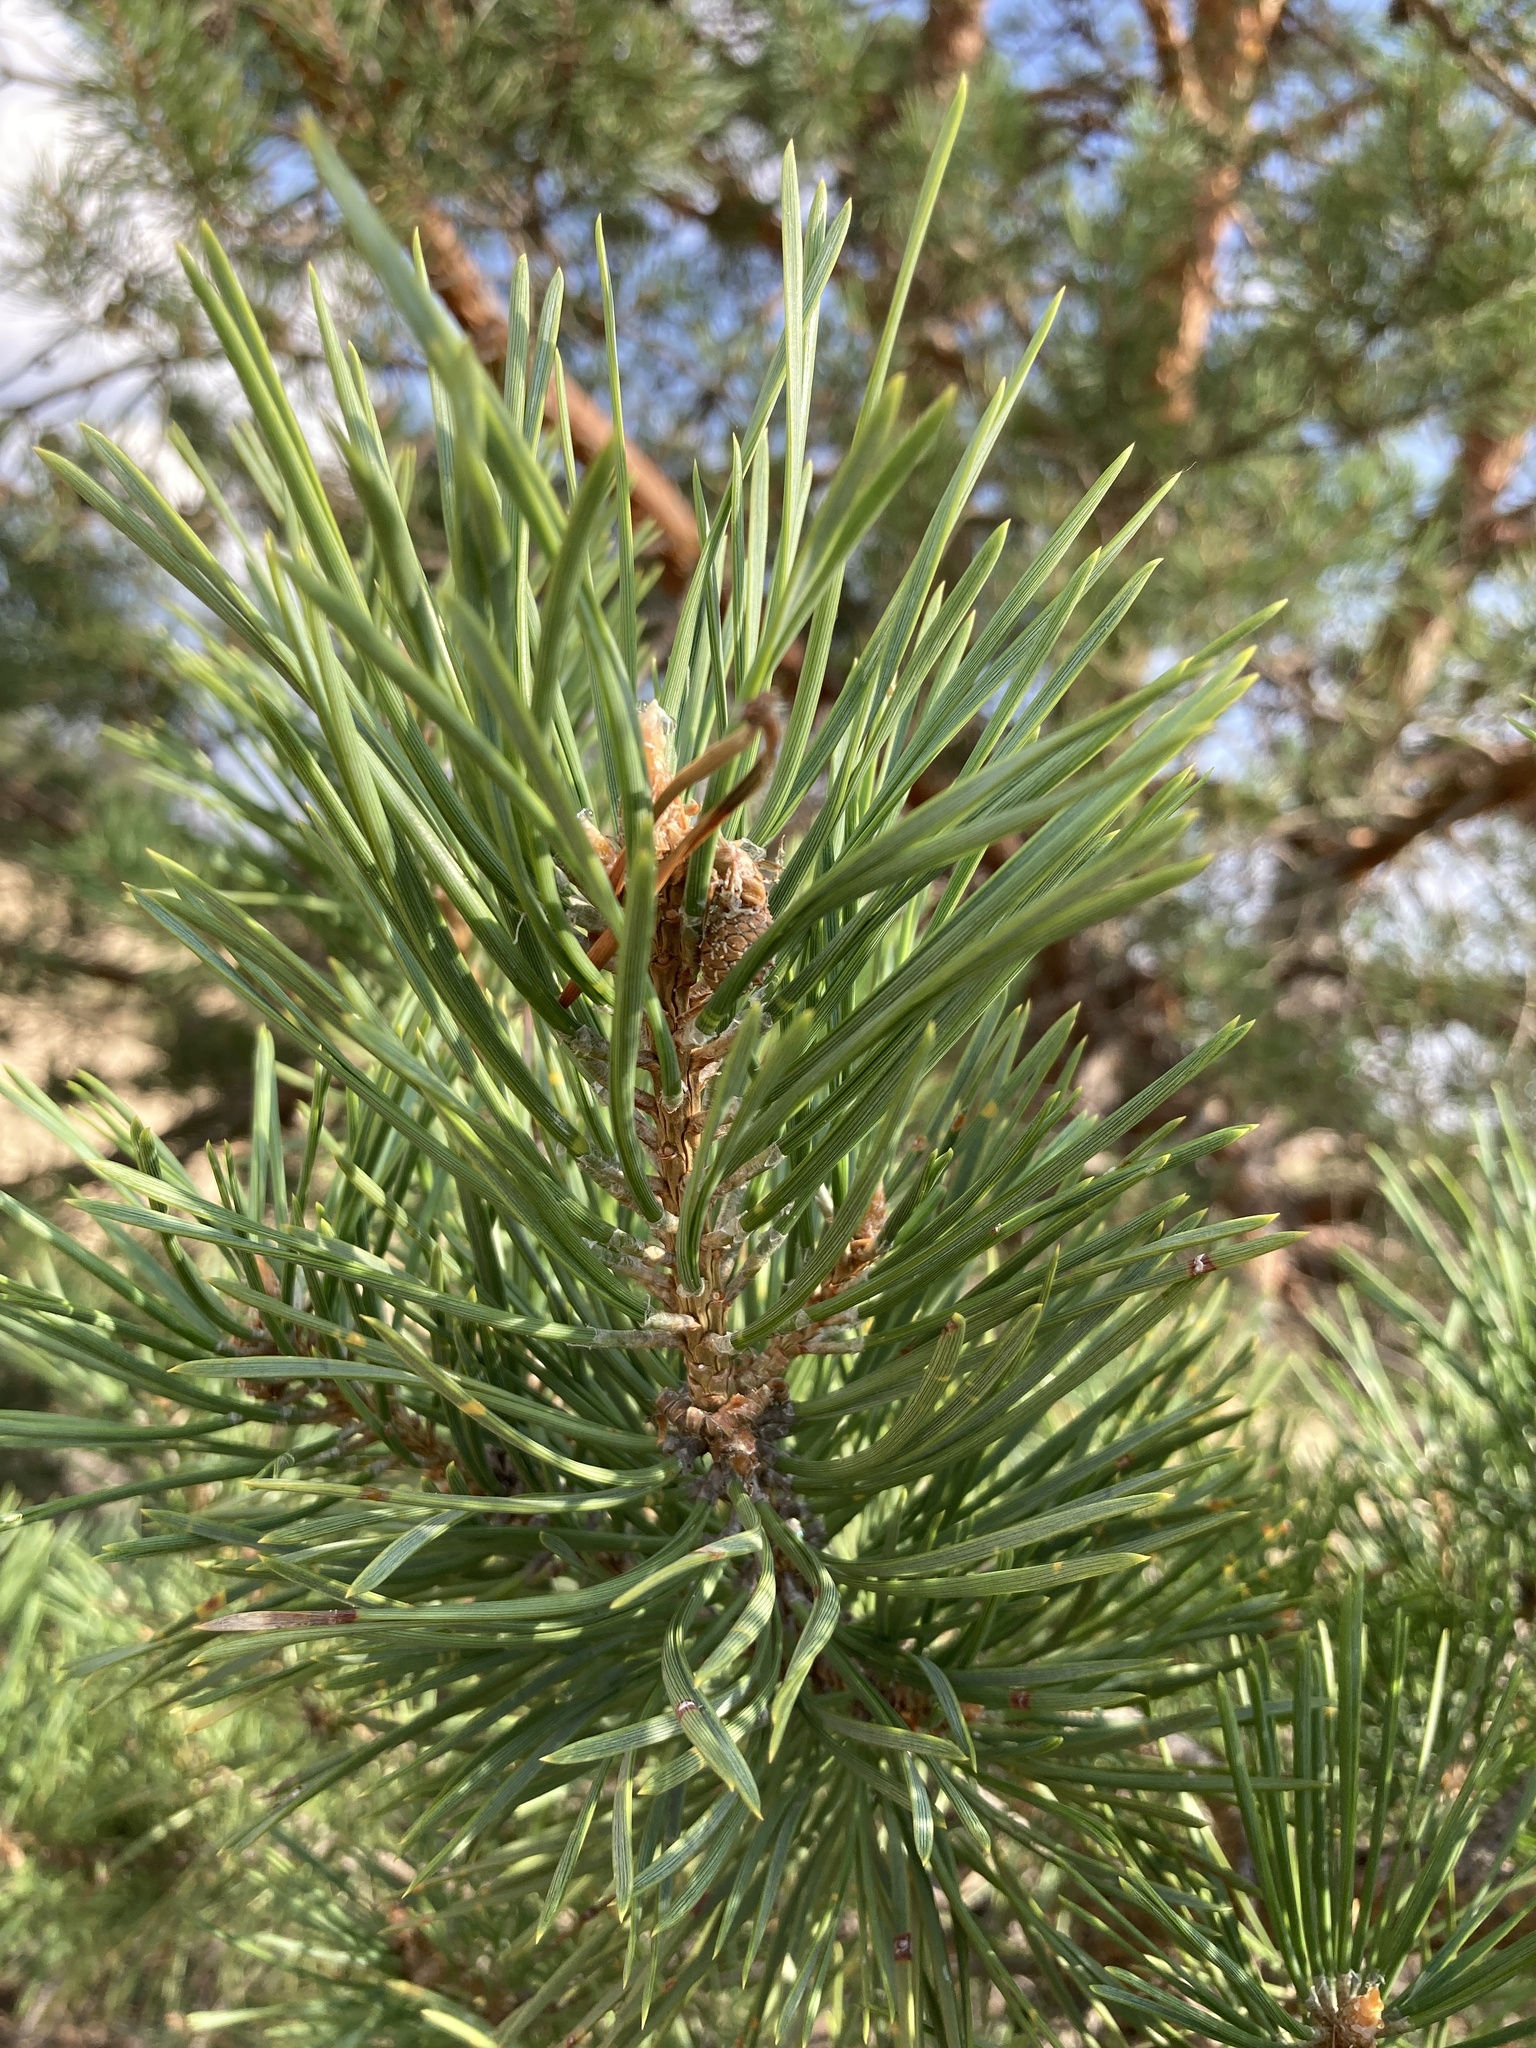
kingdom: Plantae
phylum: Tracheophyta
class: Pinopsida
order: Pinales
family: Pinaceae
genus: Pinus
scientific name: Pinus sylvestris
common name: Scots pine
